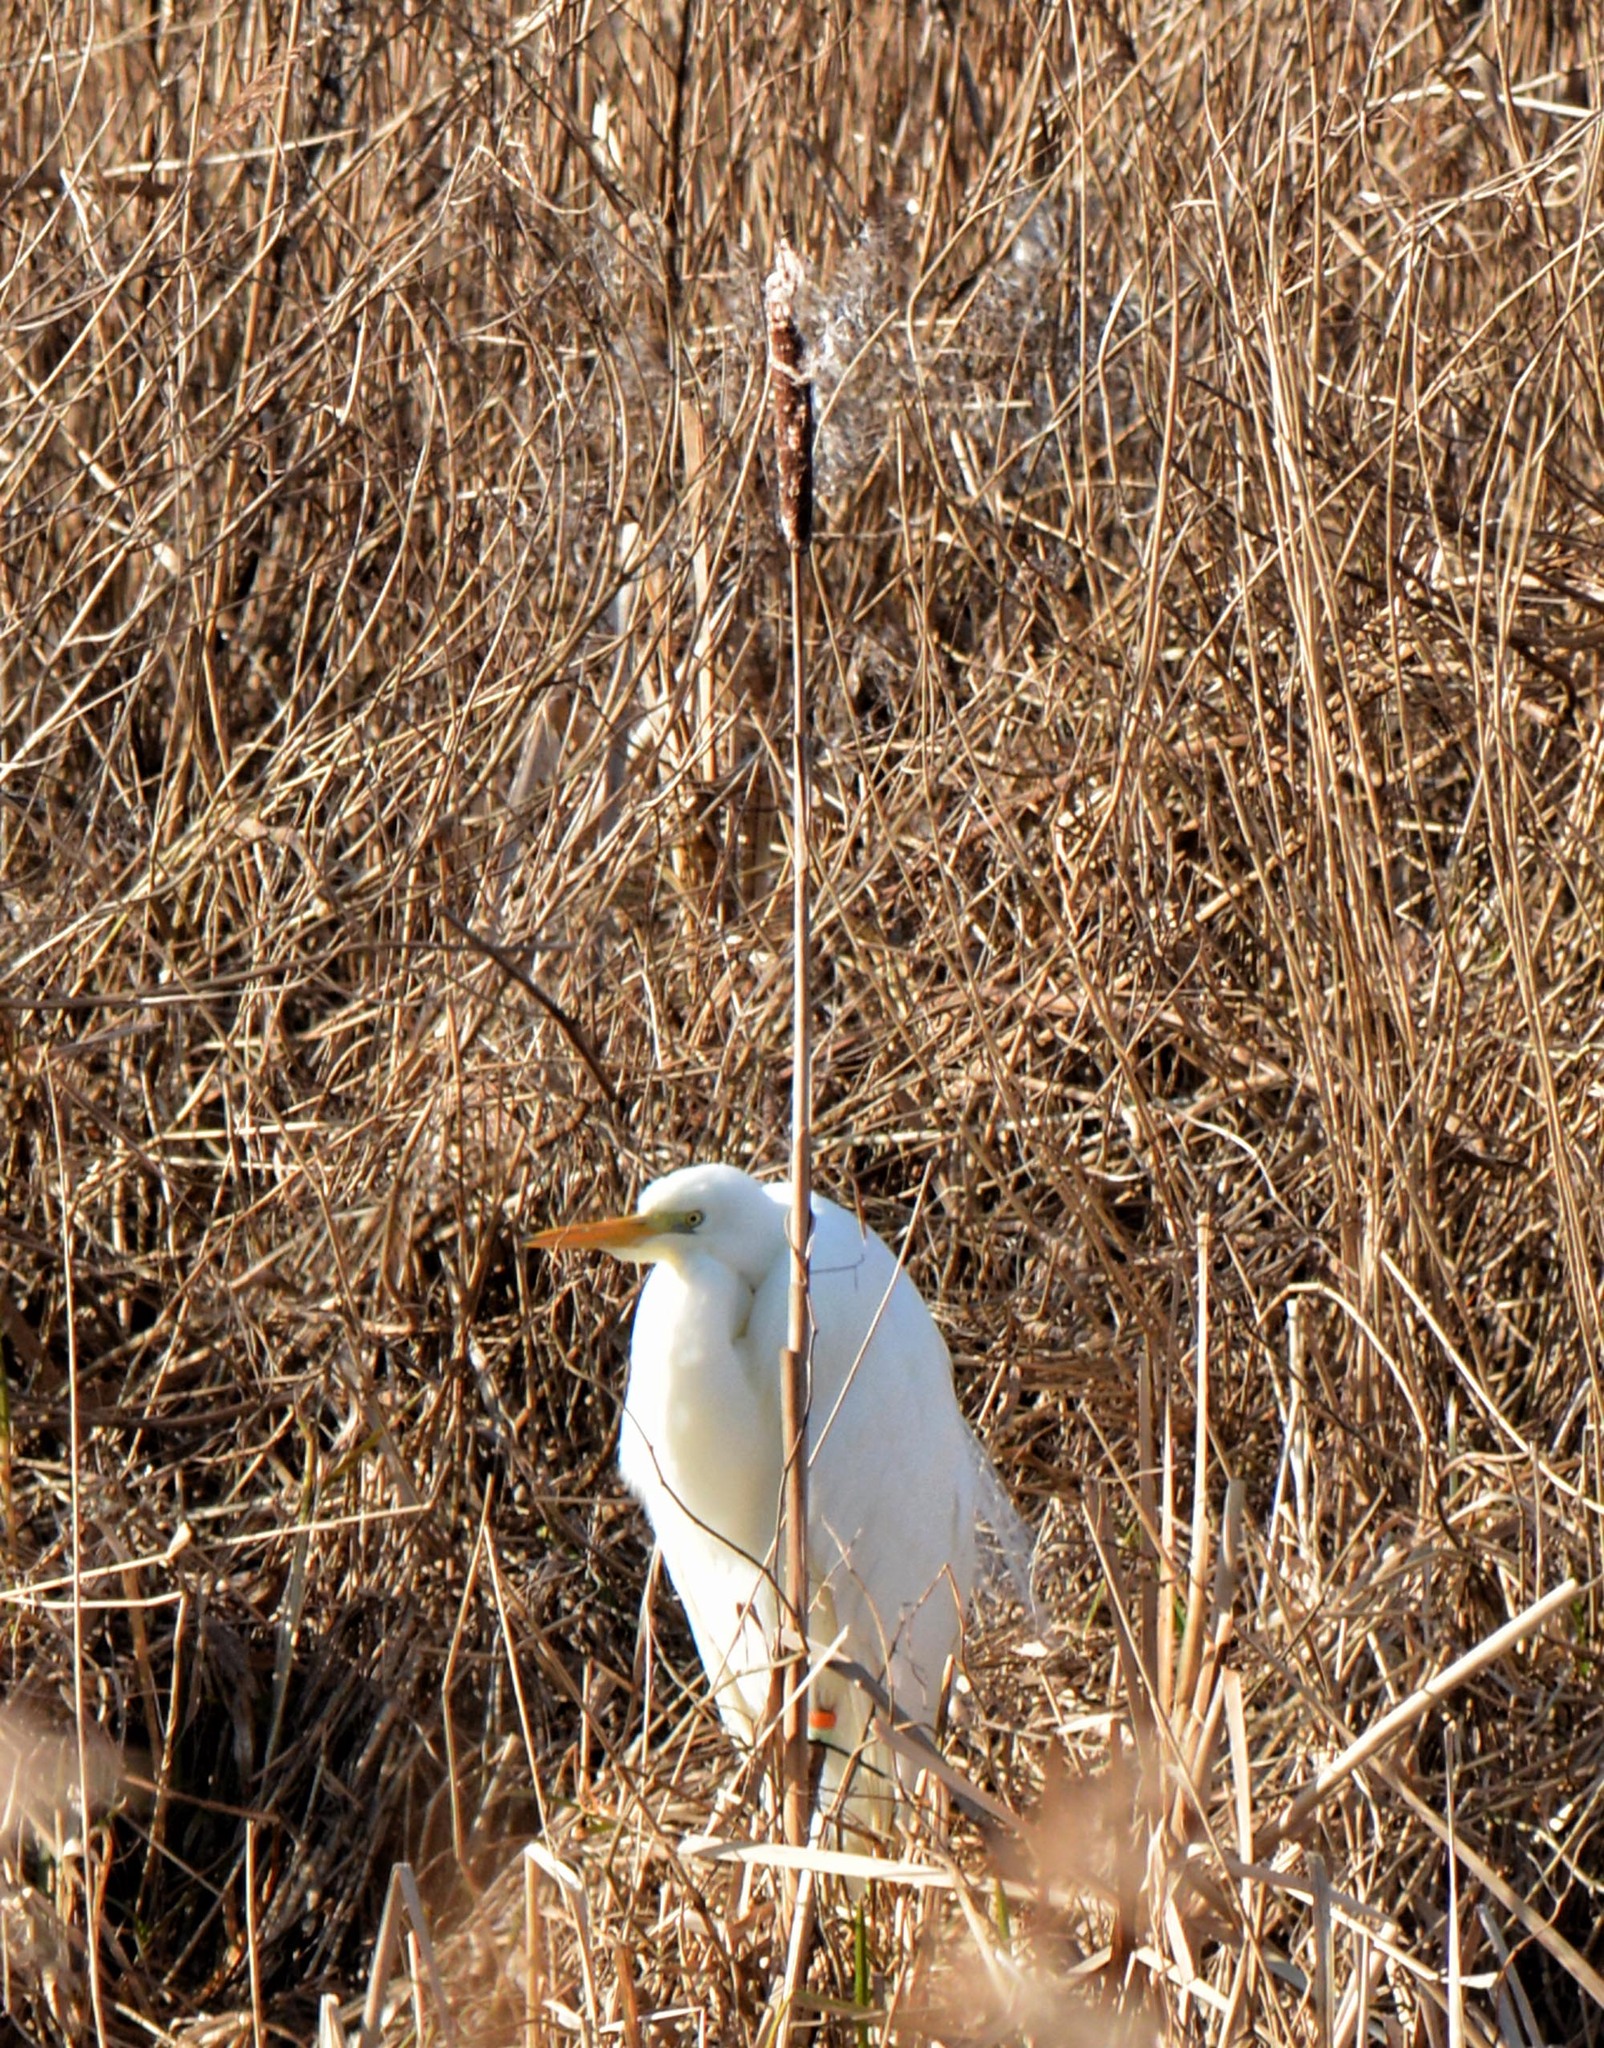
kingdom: Animalia
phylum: Chordata
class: Aves
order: Pelecaniformes
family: Ardeidae
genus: Bubulcus
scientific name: Bubulcus ibis
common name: Cattle egret
